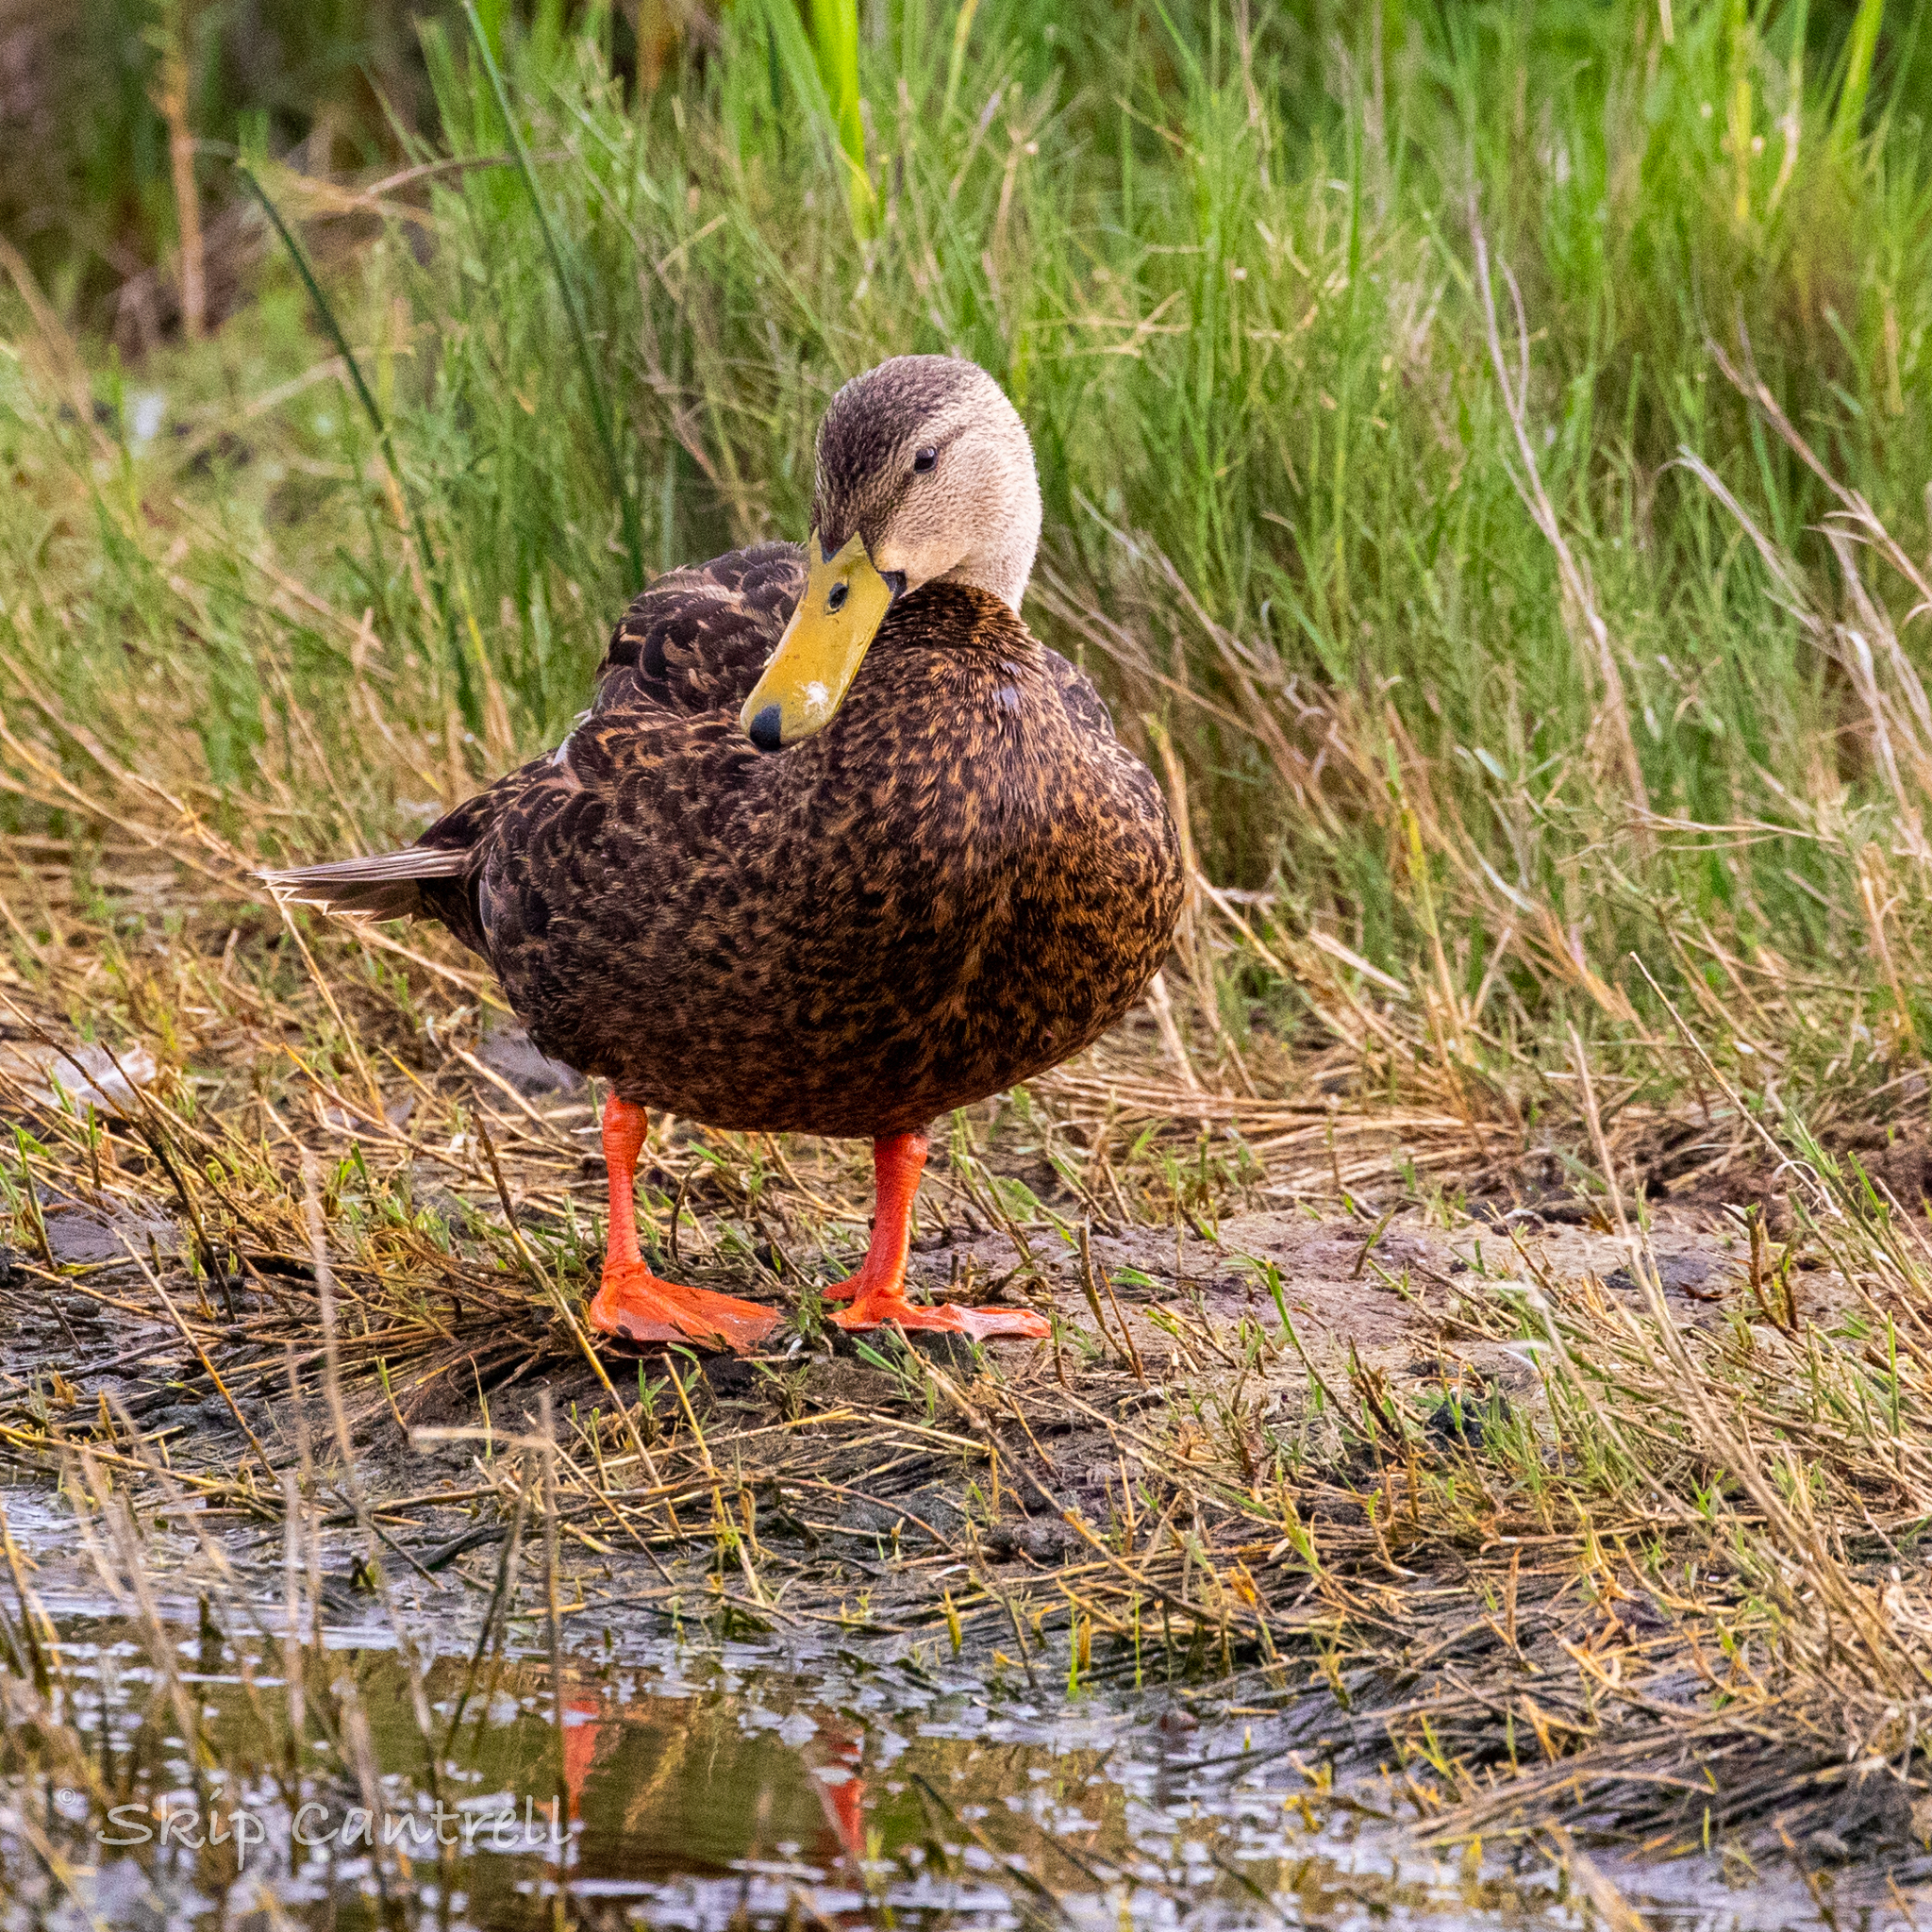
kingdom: Animalia
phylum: Chordata
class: Aves
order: Anseriformes
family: Anatidae
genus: Anas
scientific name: Anas fulvigula
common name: Mottled duck
